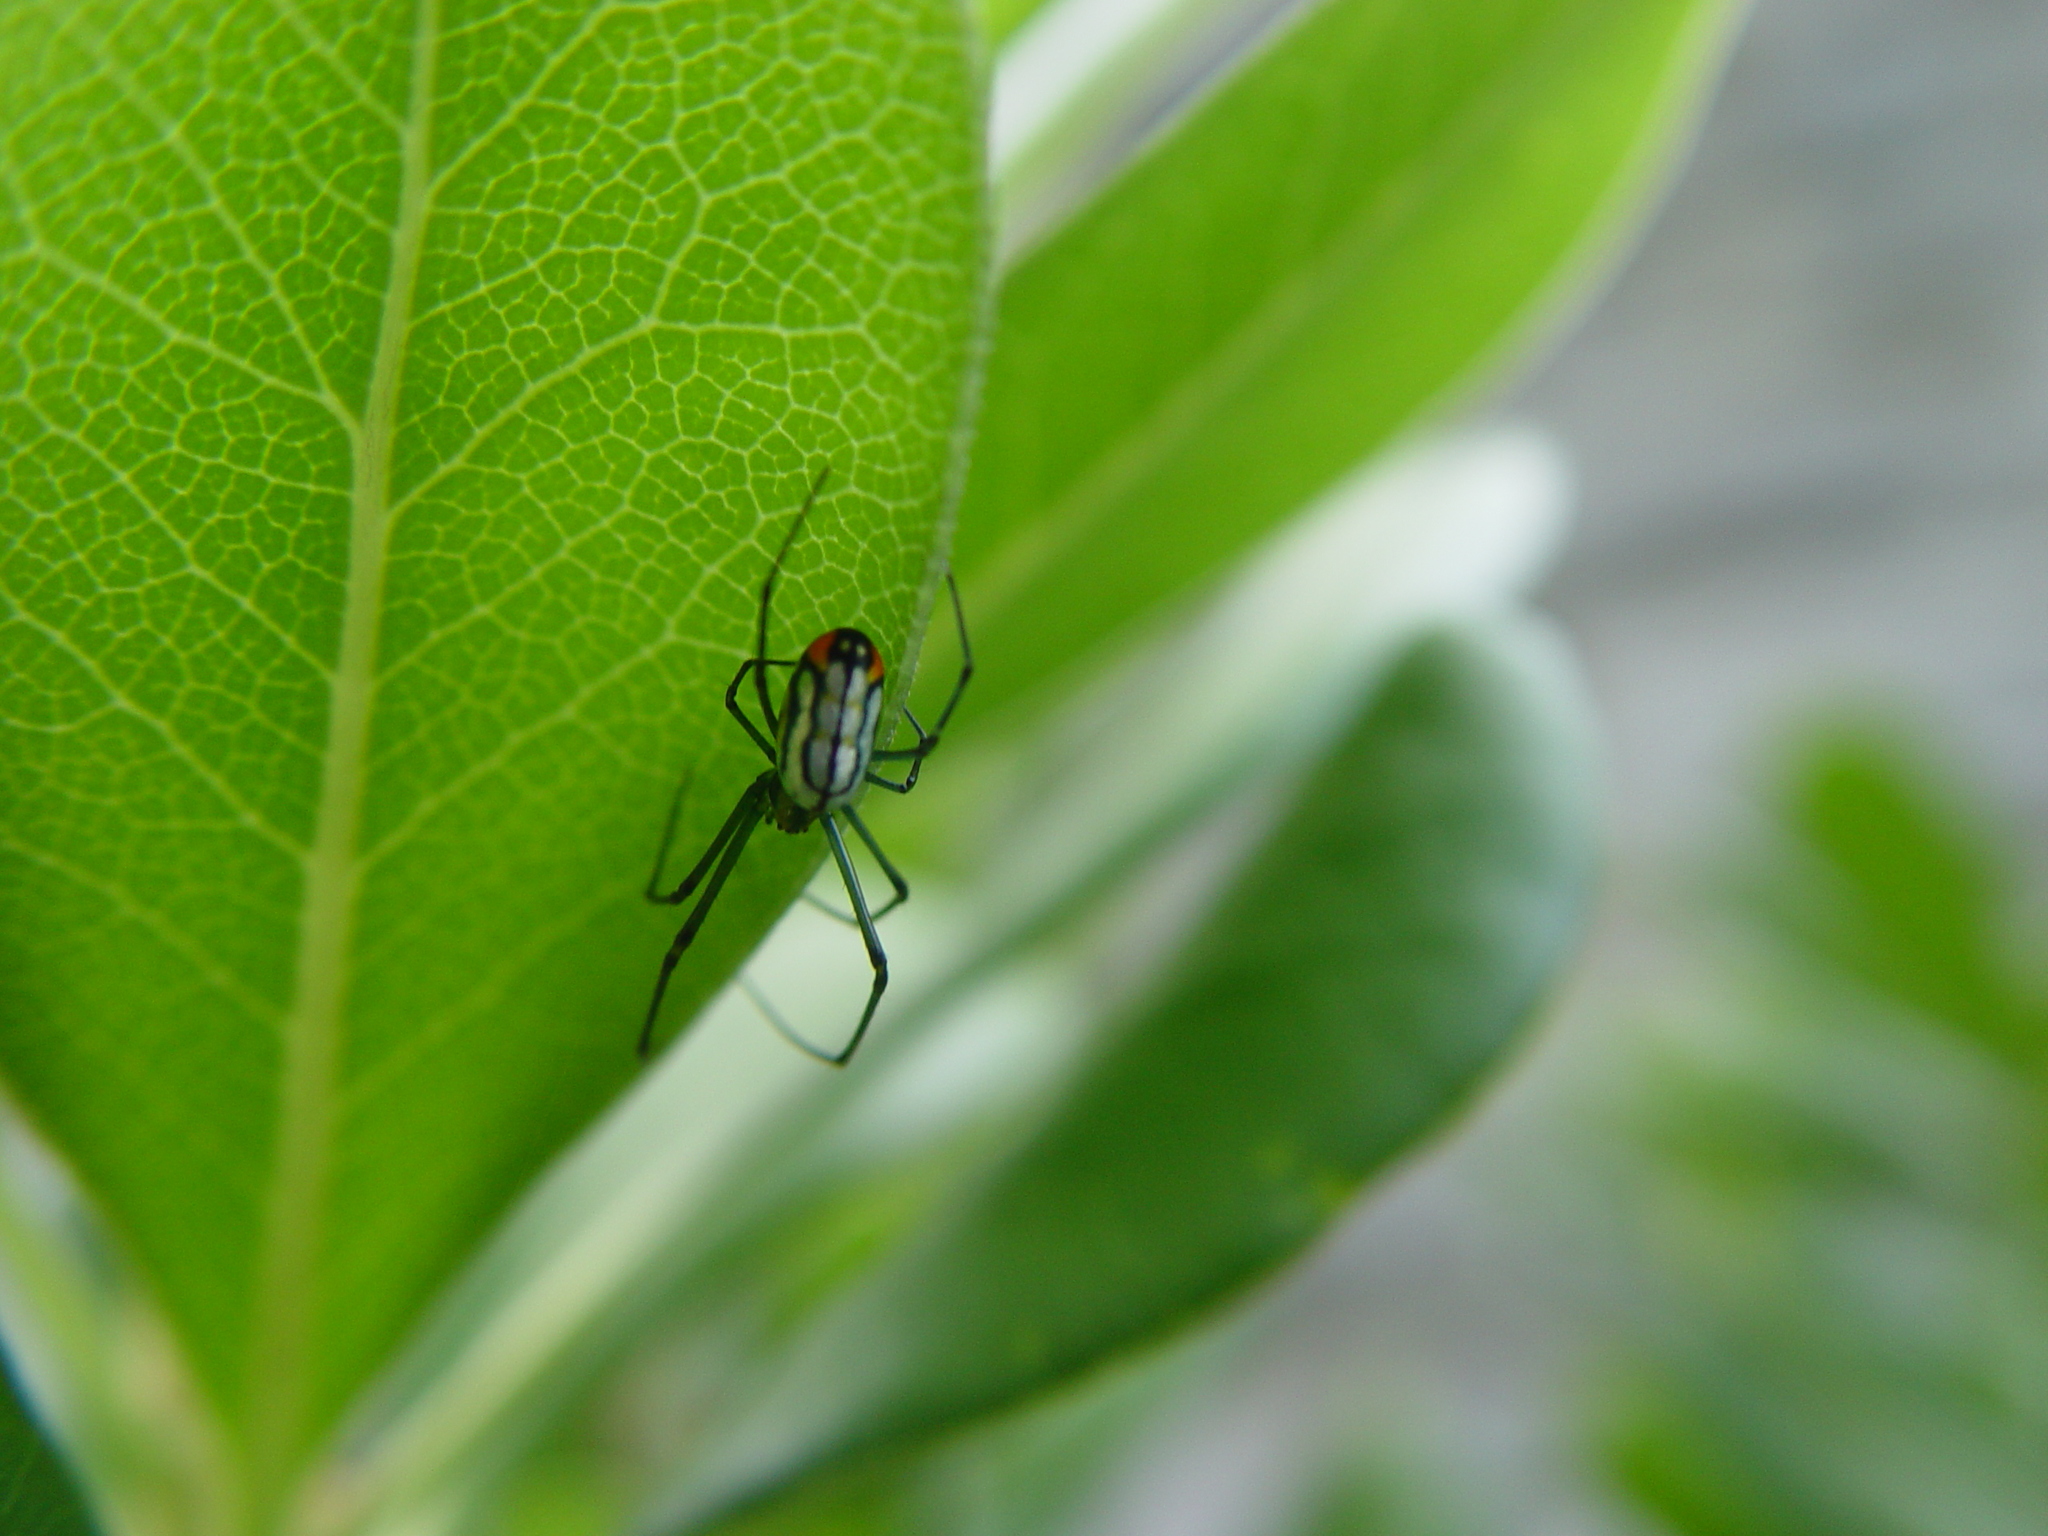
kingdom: Animalia
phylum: Arthropoda
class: Arachnida
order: Araneae
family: Tetragnathidae
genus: Leucauge
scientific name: Leucauge argyrobapta
